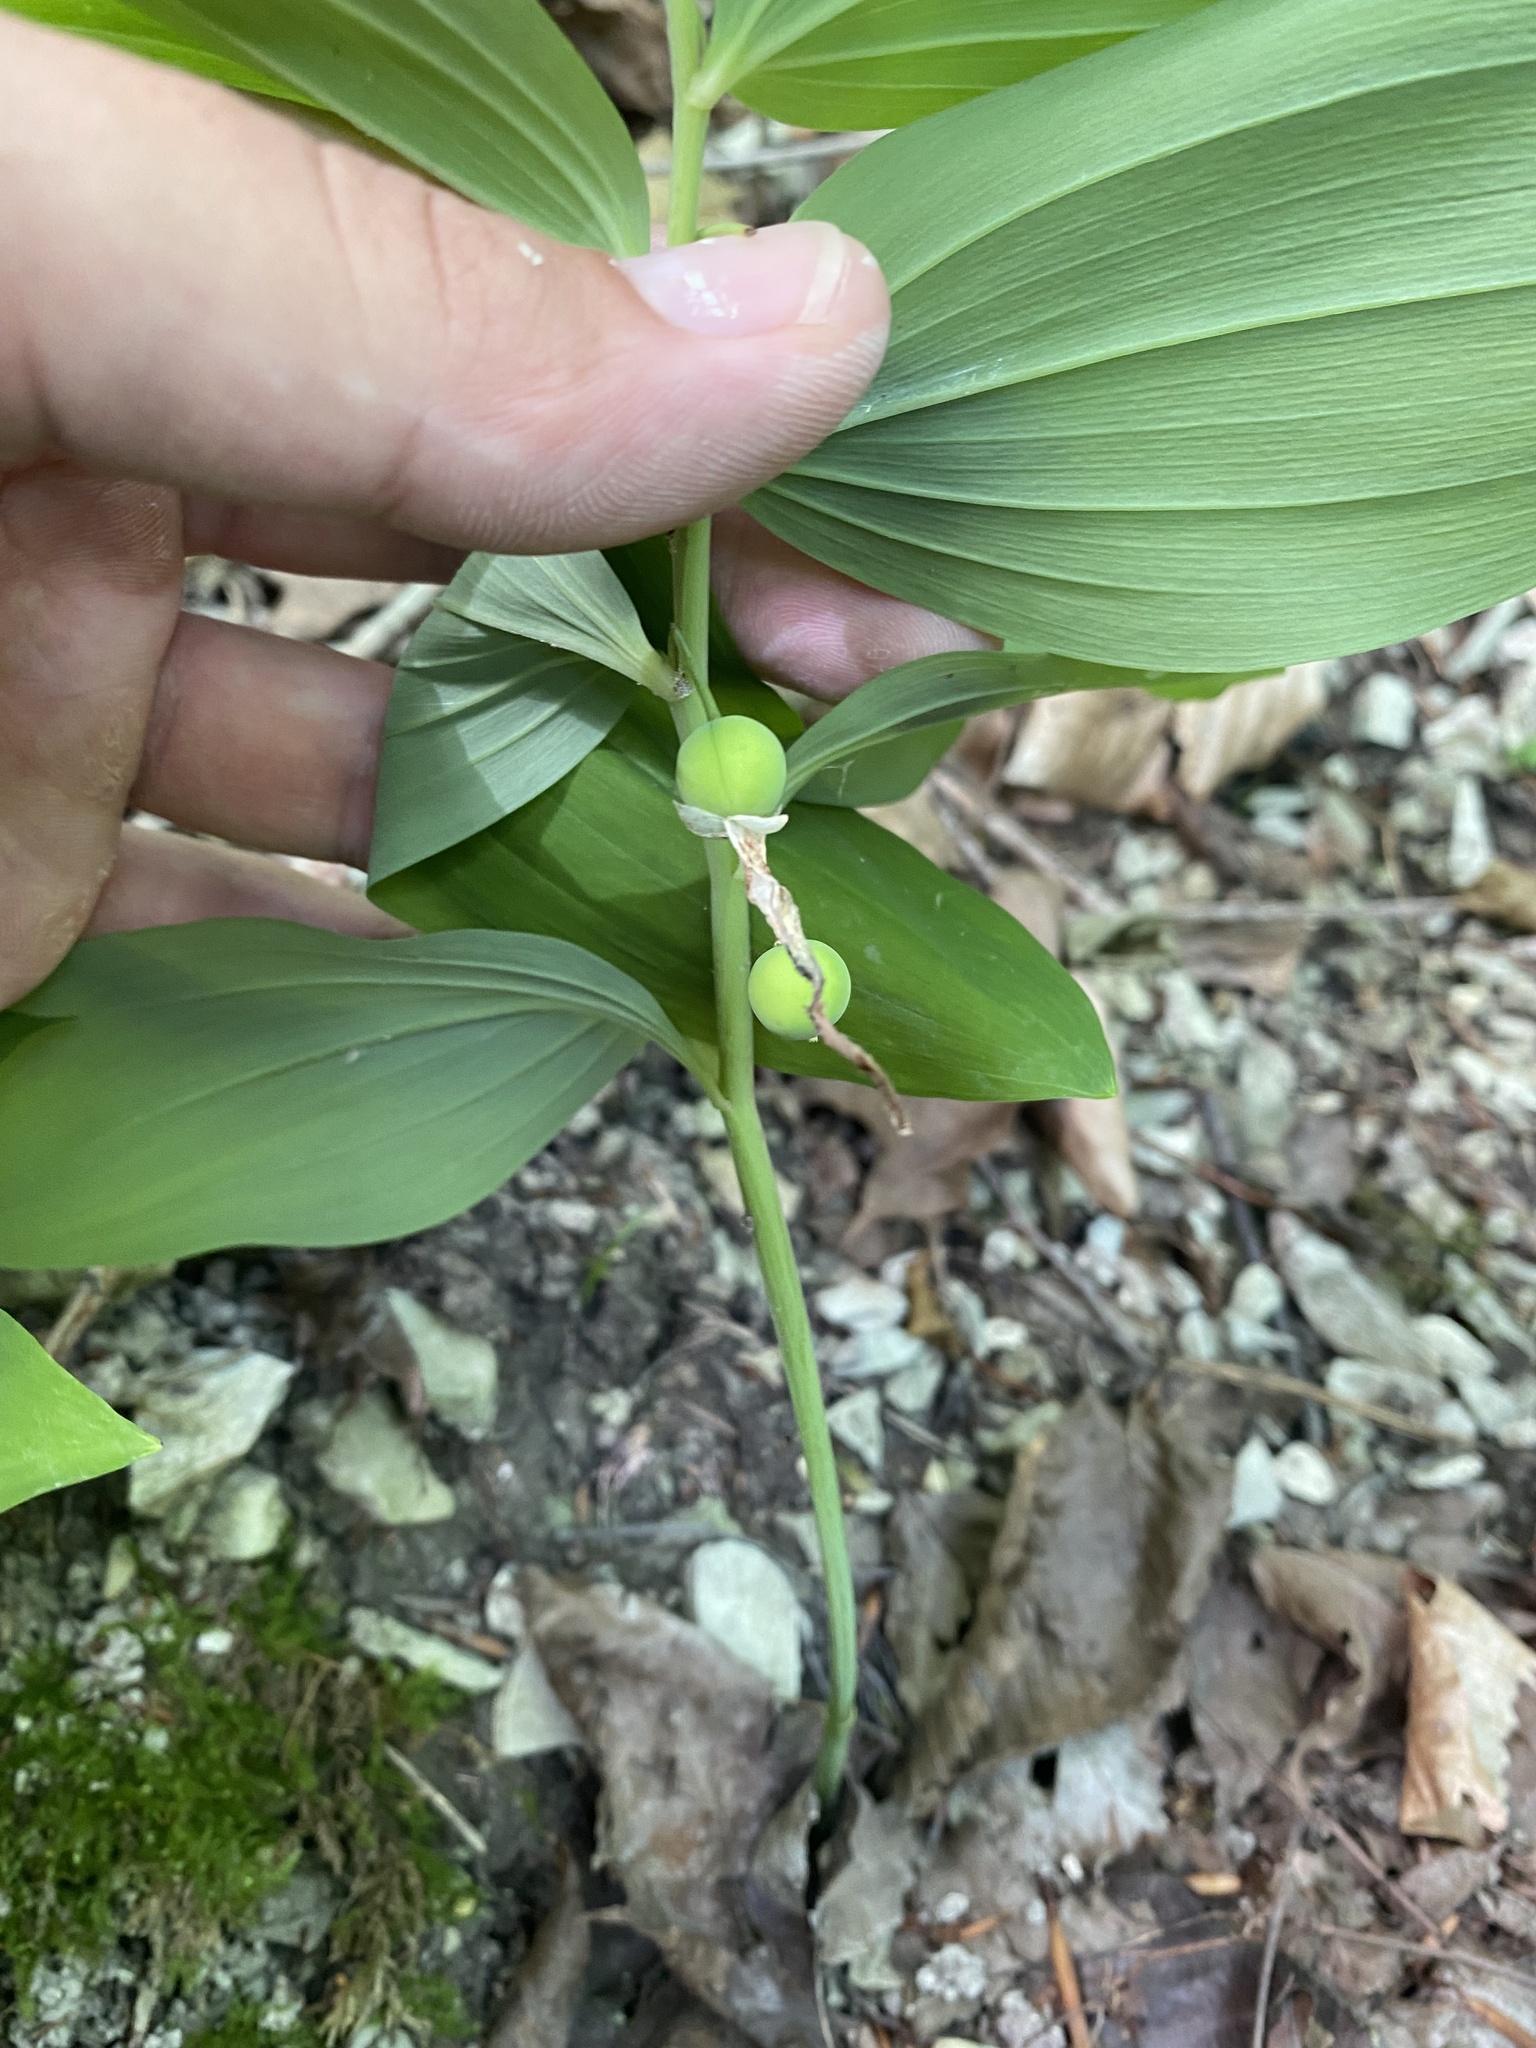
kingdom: Plantae
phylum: Tracheophyta
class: Liliopsida
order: Asparagales
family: Asparagaceae
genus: Polygonatum
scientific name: Polygonatum multiflorum
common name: Solomon's-seal
